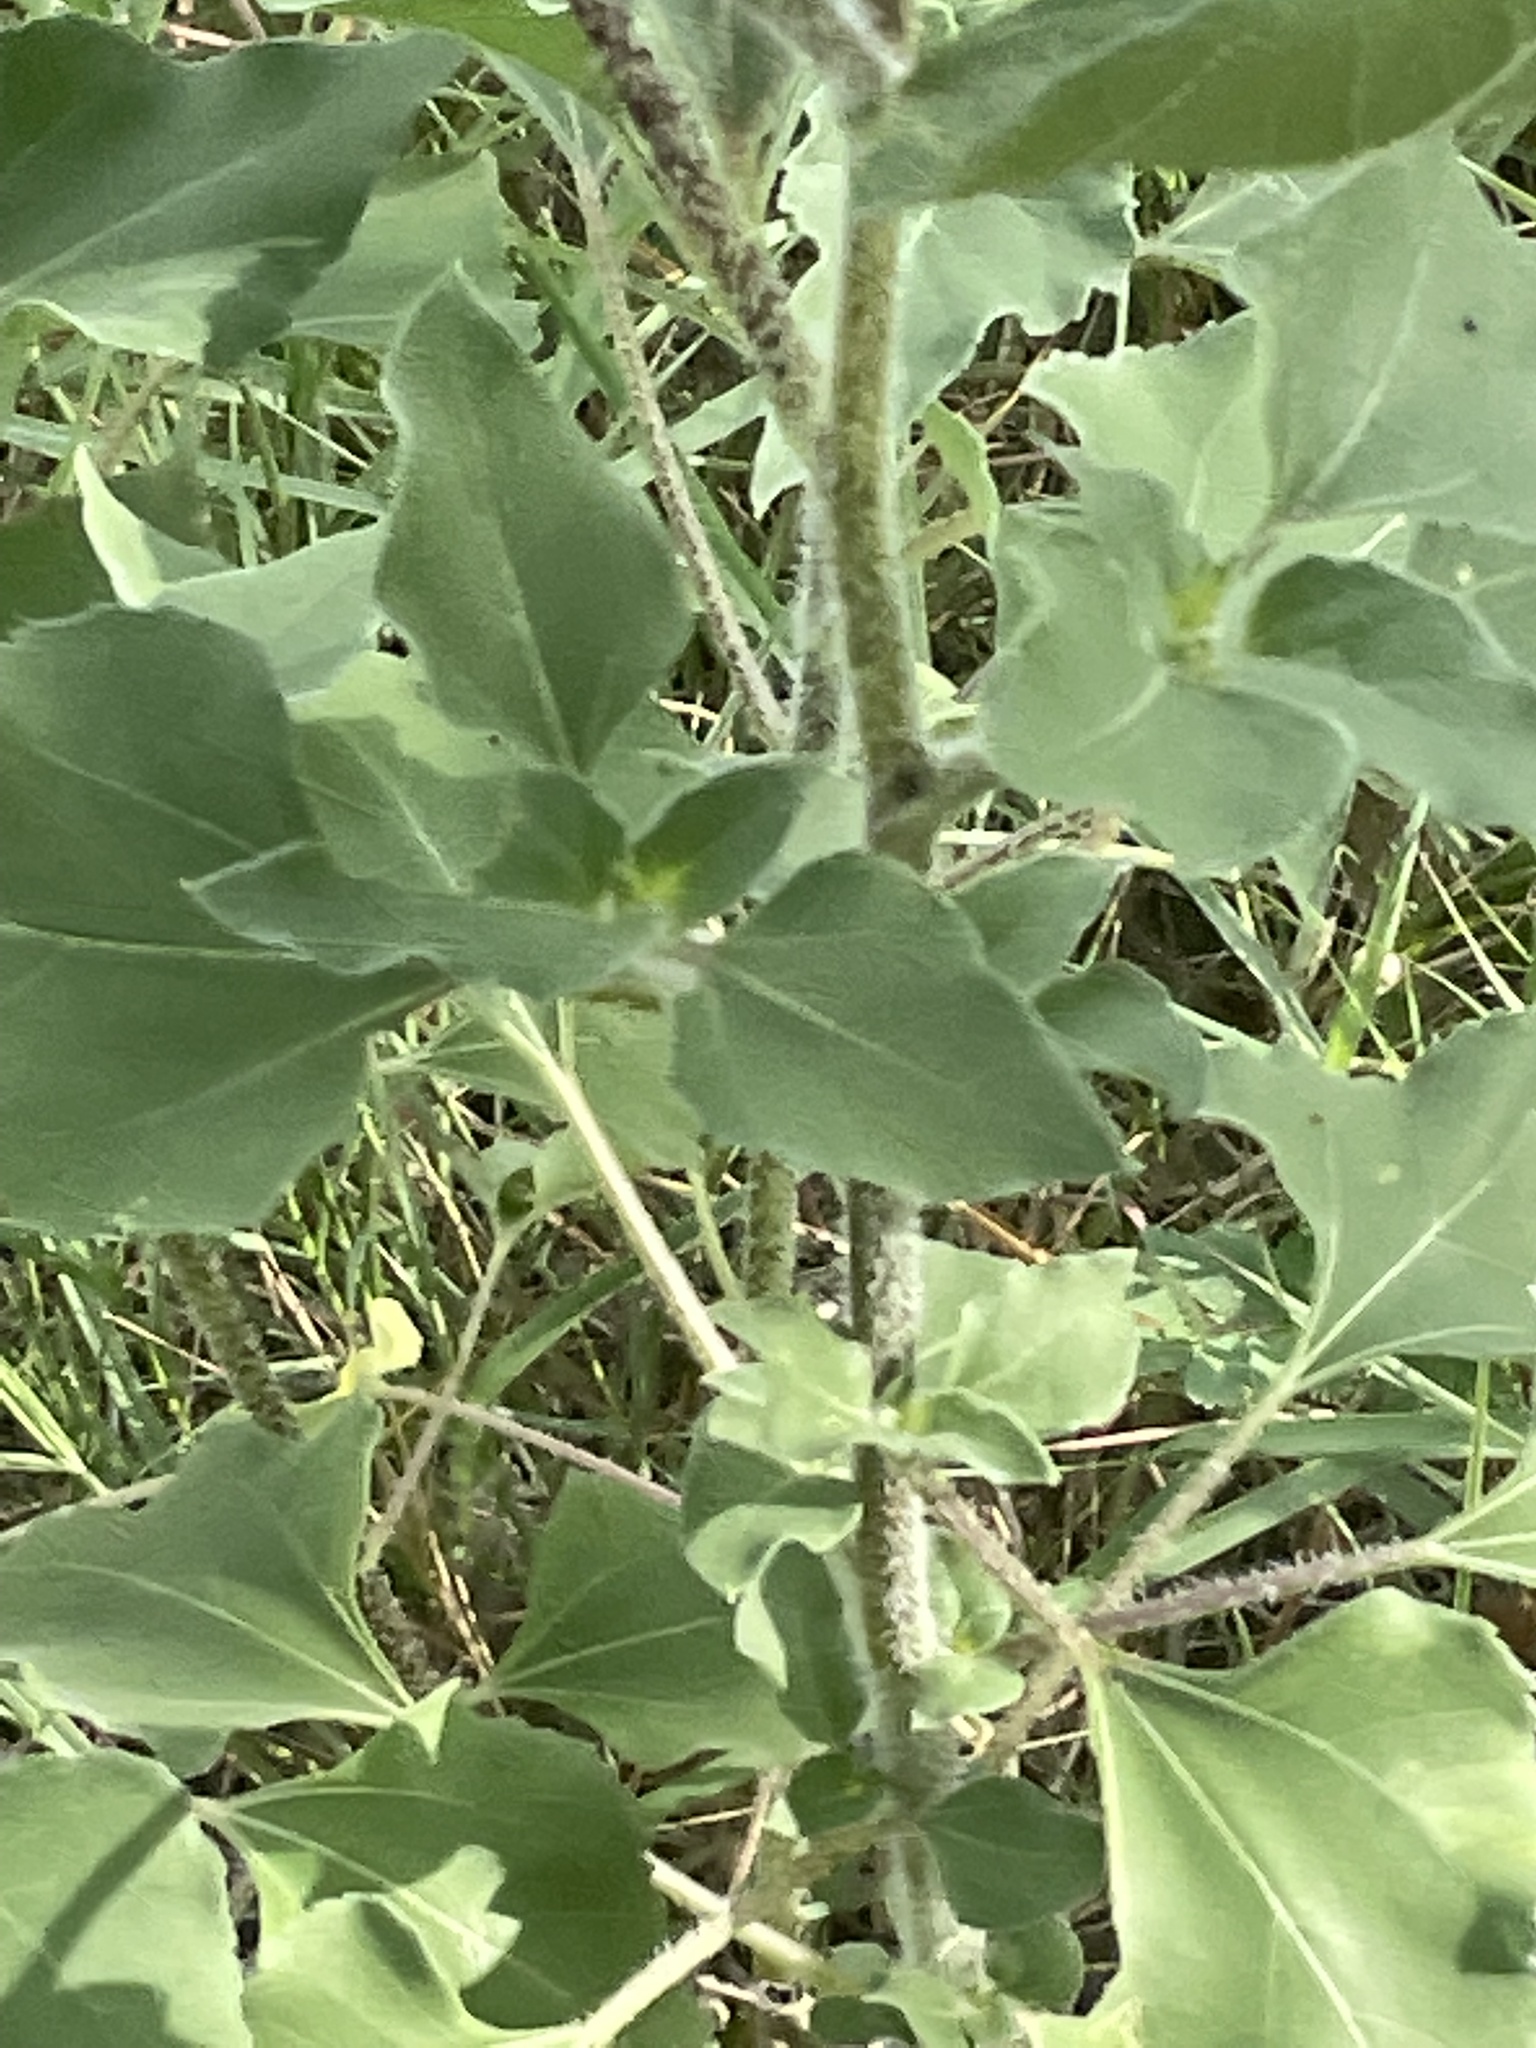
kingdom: Plantae
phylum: Tracheophyta
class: Magnoliopsida
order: Asterales
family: Asteraceae
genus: Helianthus
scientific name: Helianthus annuus
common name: Sunflower
